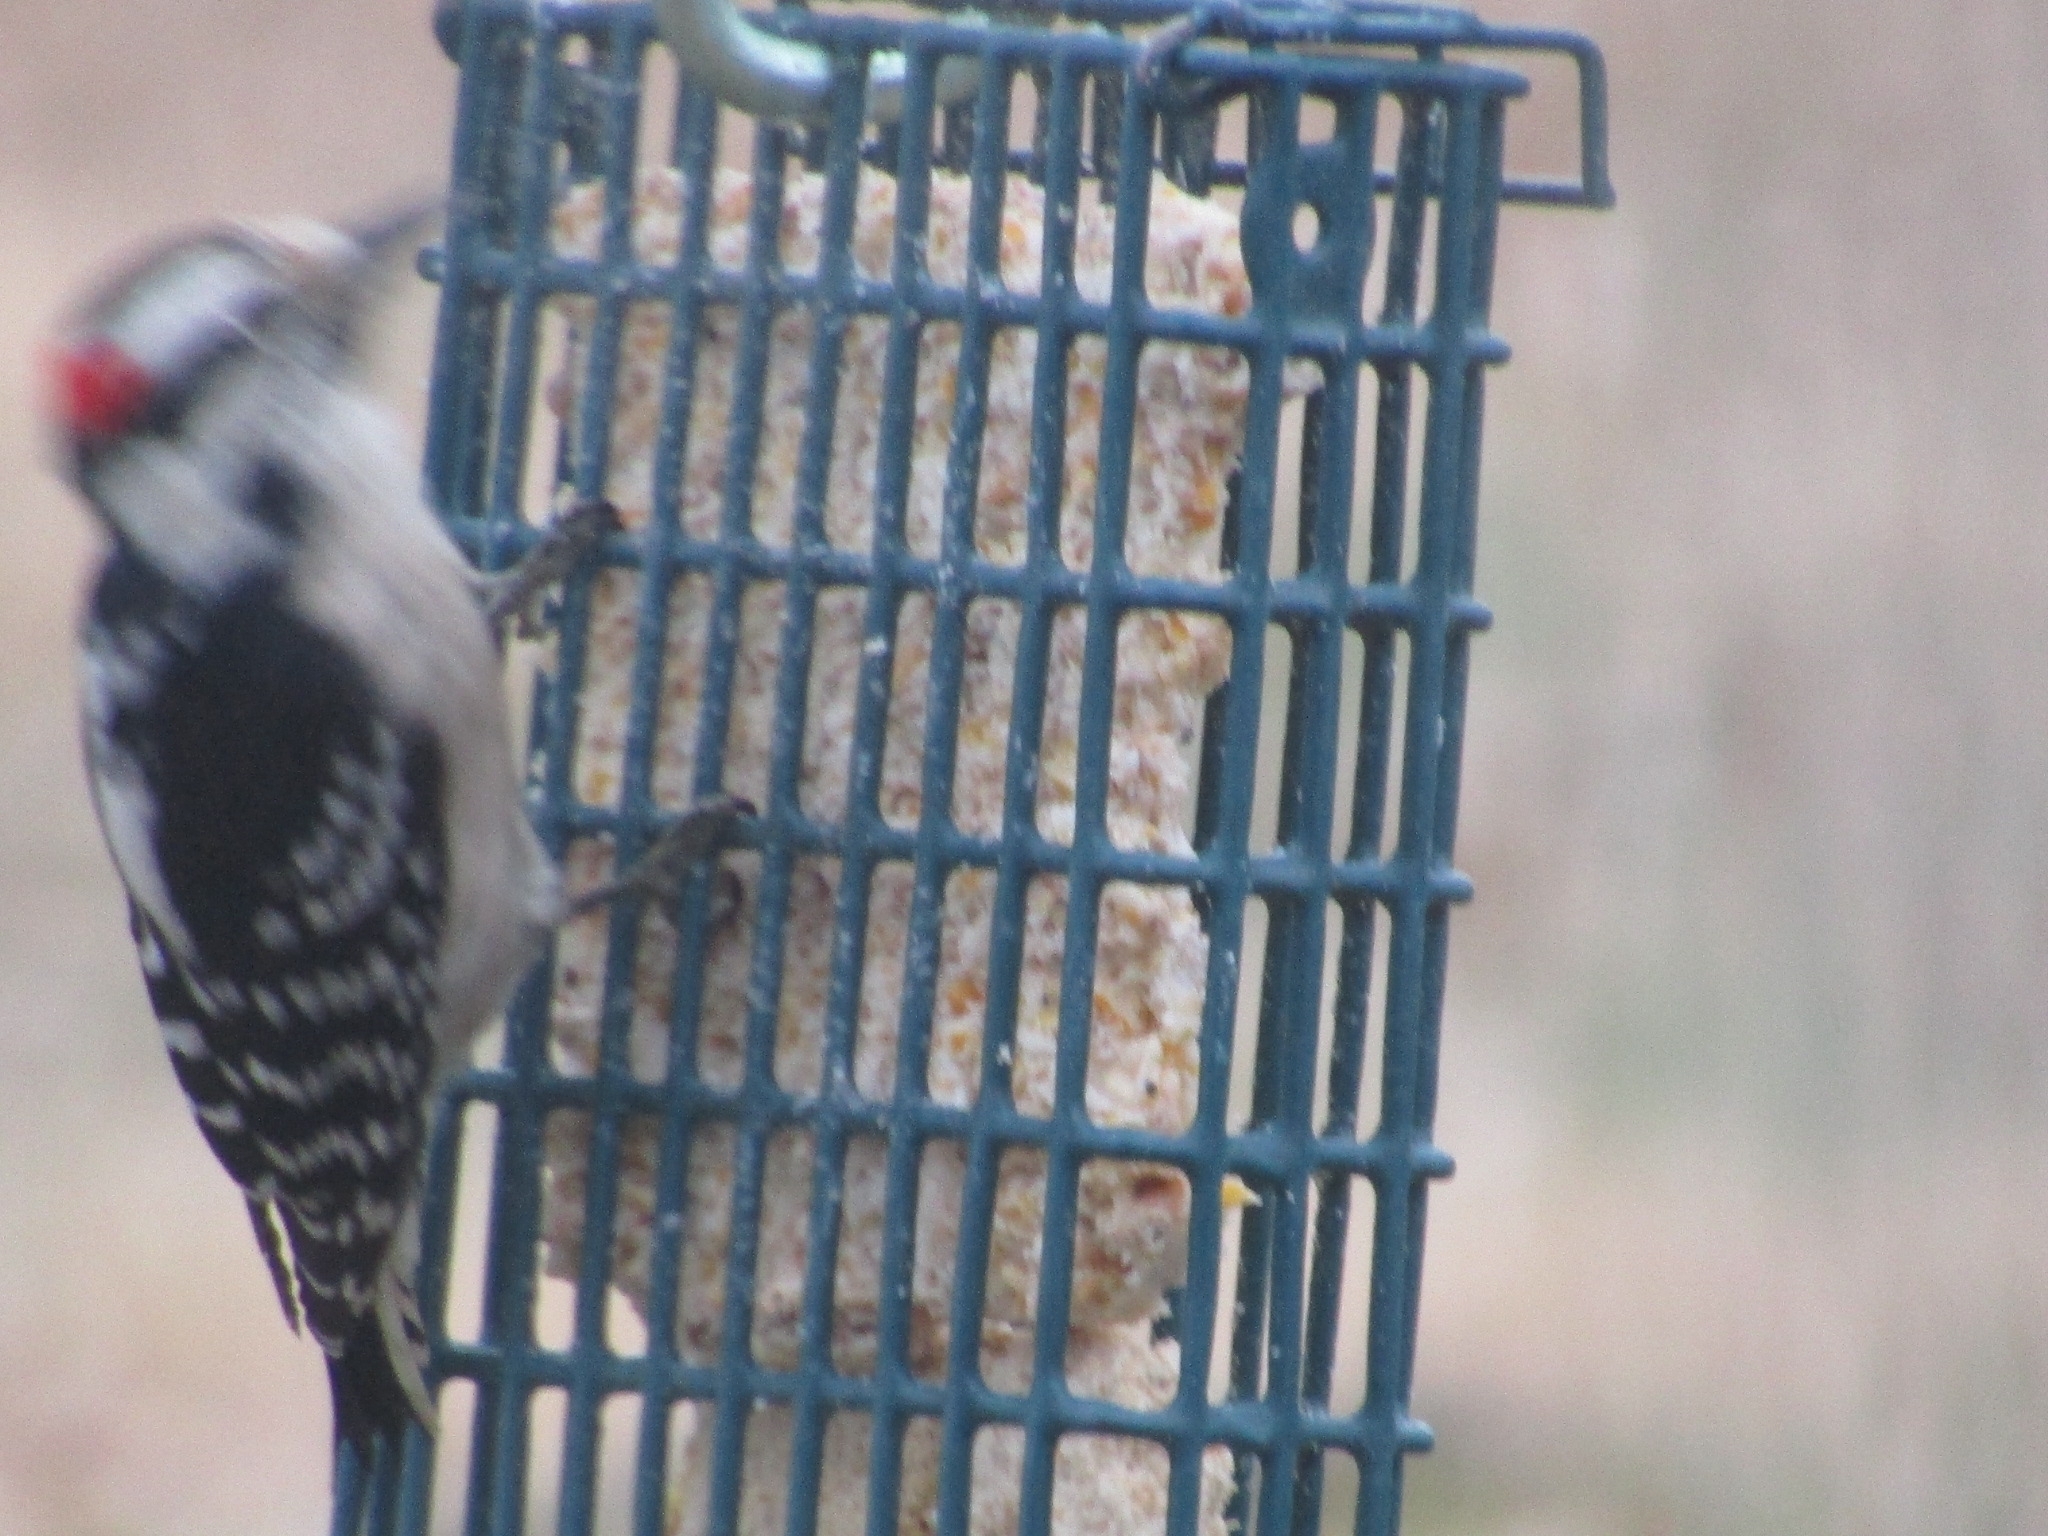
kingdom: Animalia
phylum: Chordata
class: Aves
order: Piciformes
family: Picidae
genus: Dryobates
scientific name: Dryobates pubescens
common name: Downy woodpecker
